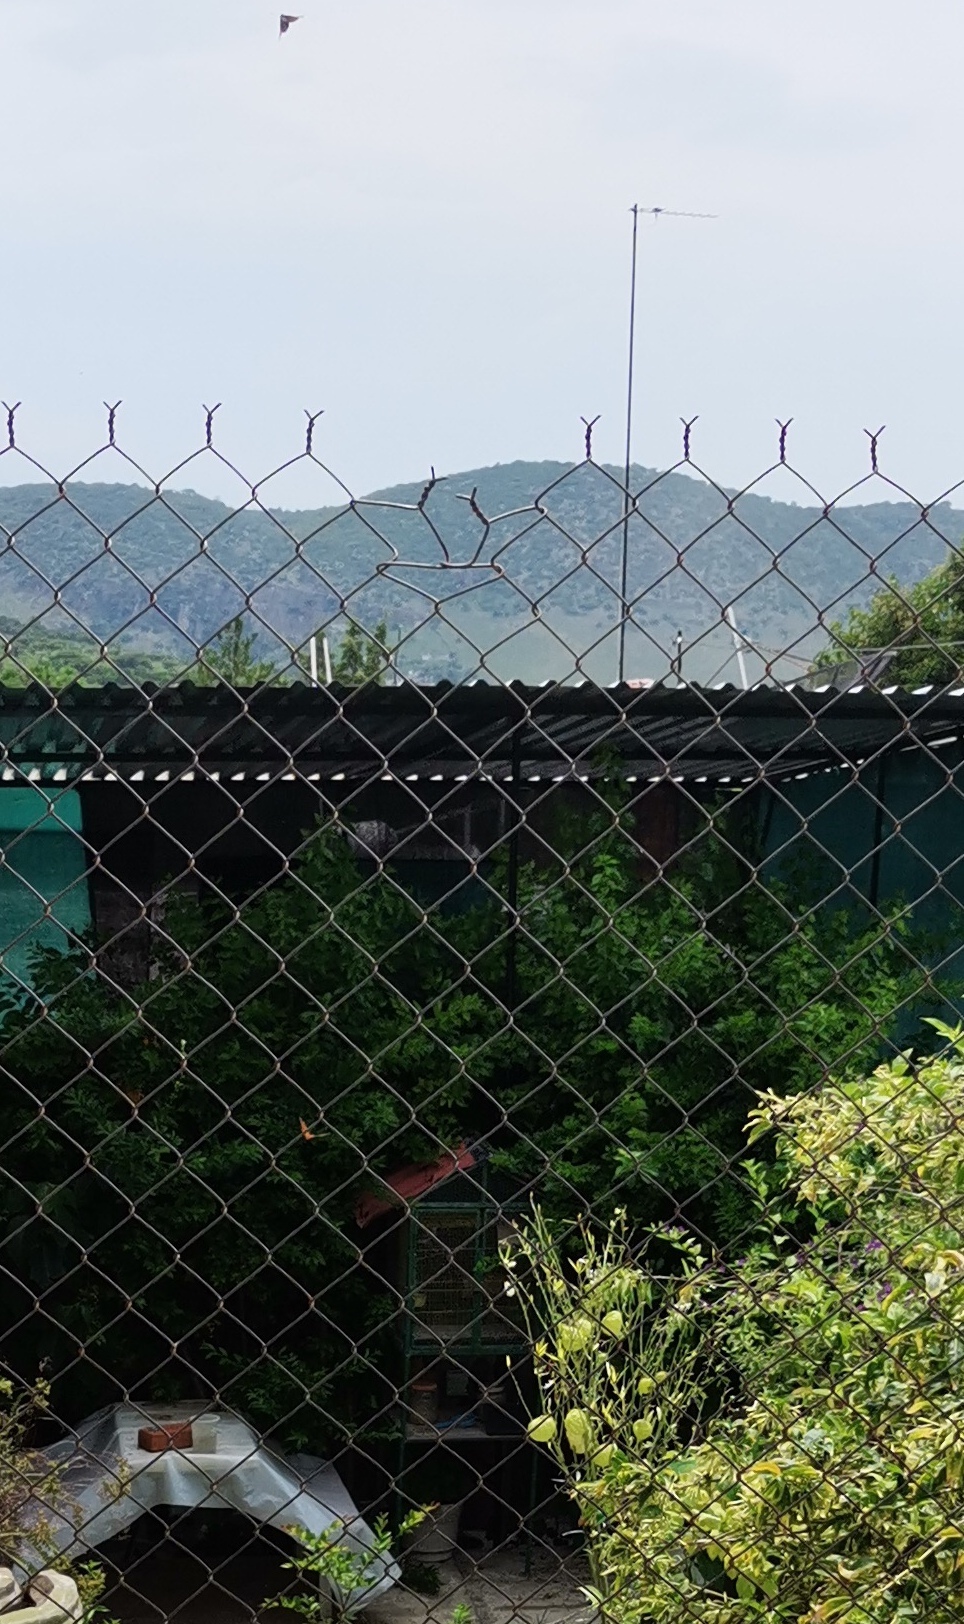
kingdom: Animalia
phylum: Arthropoda
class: Insecta
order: Lepidoptera
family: Nymphalidae
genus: Danaus
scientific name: Danaus plexippus
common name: Monarch
